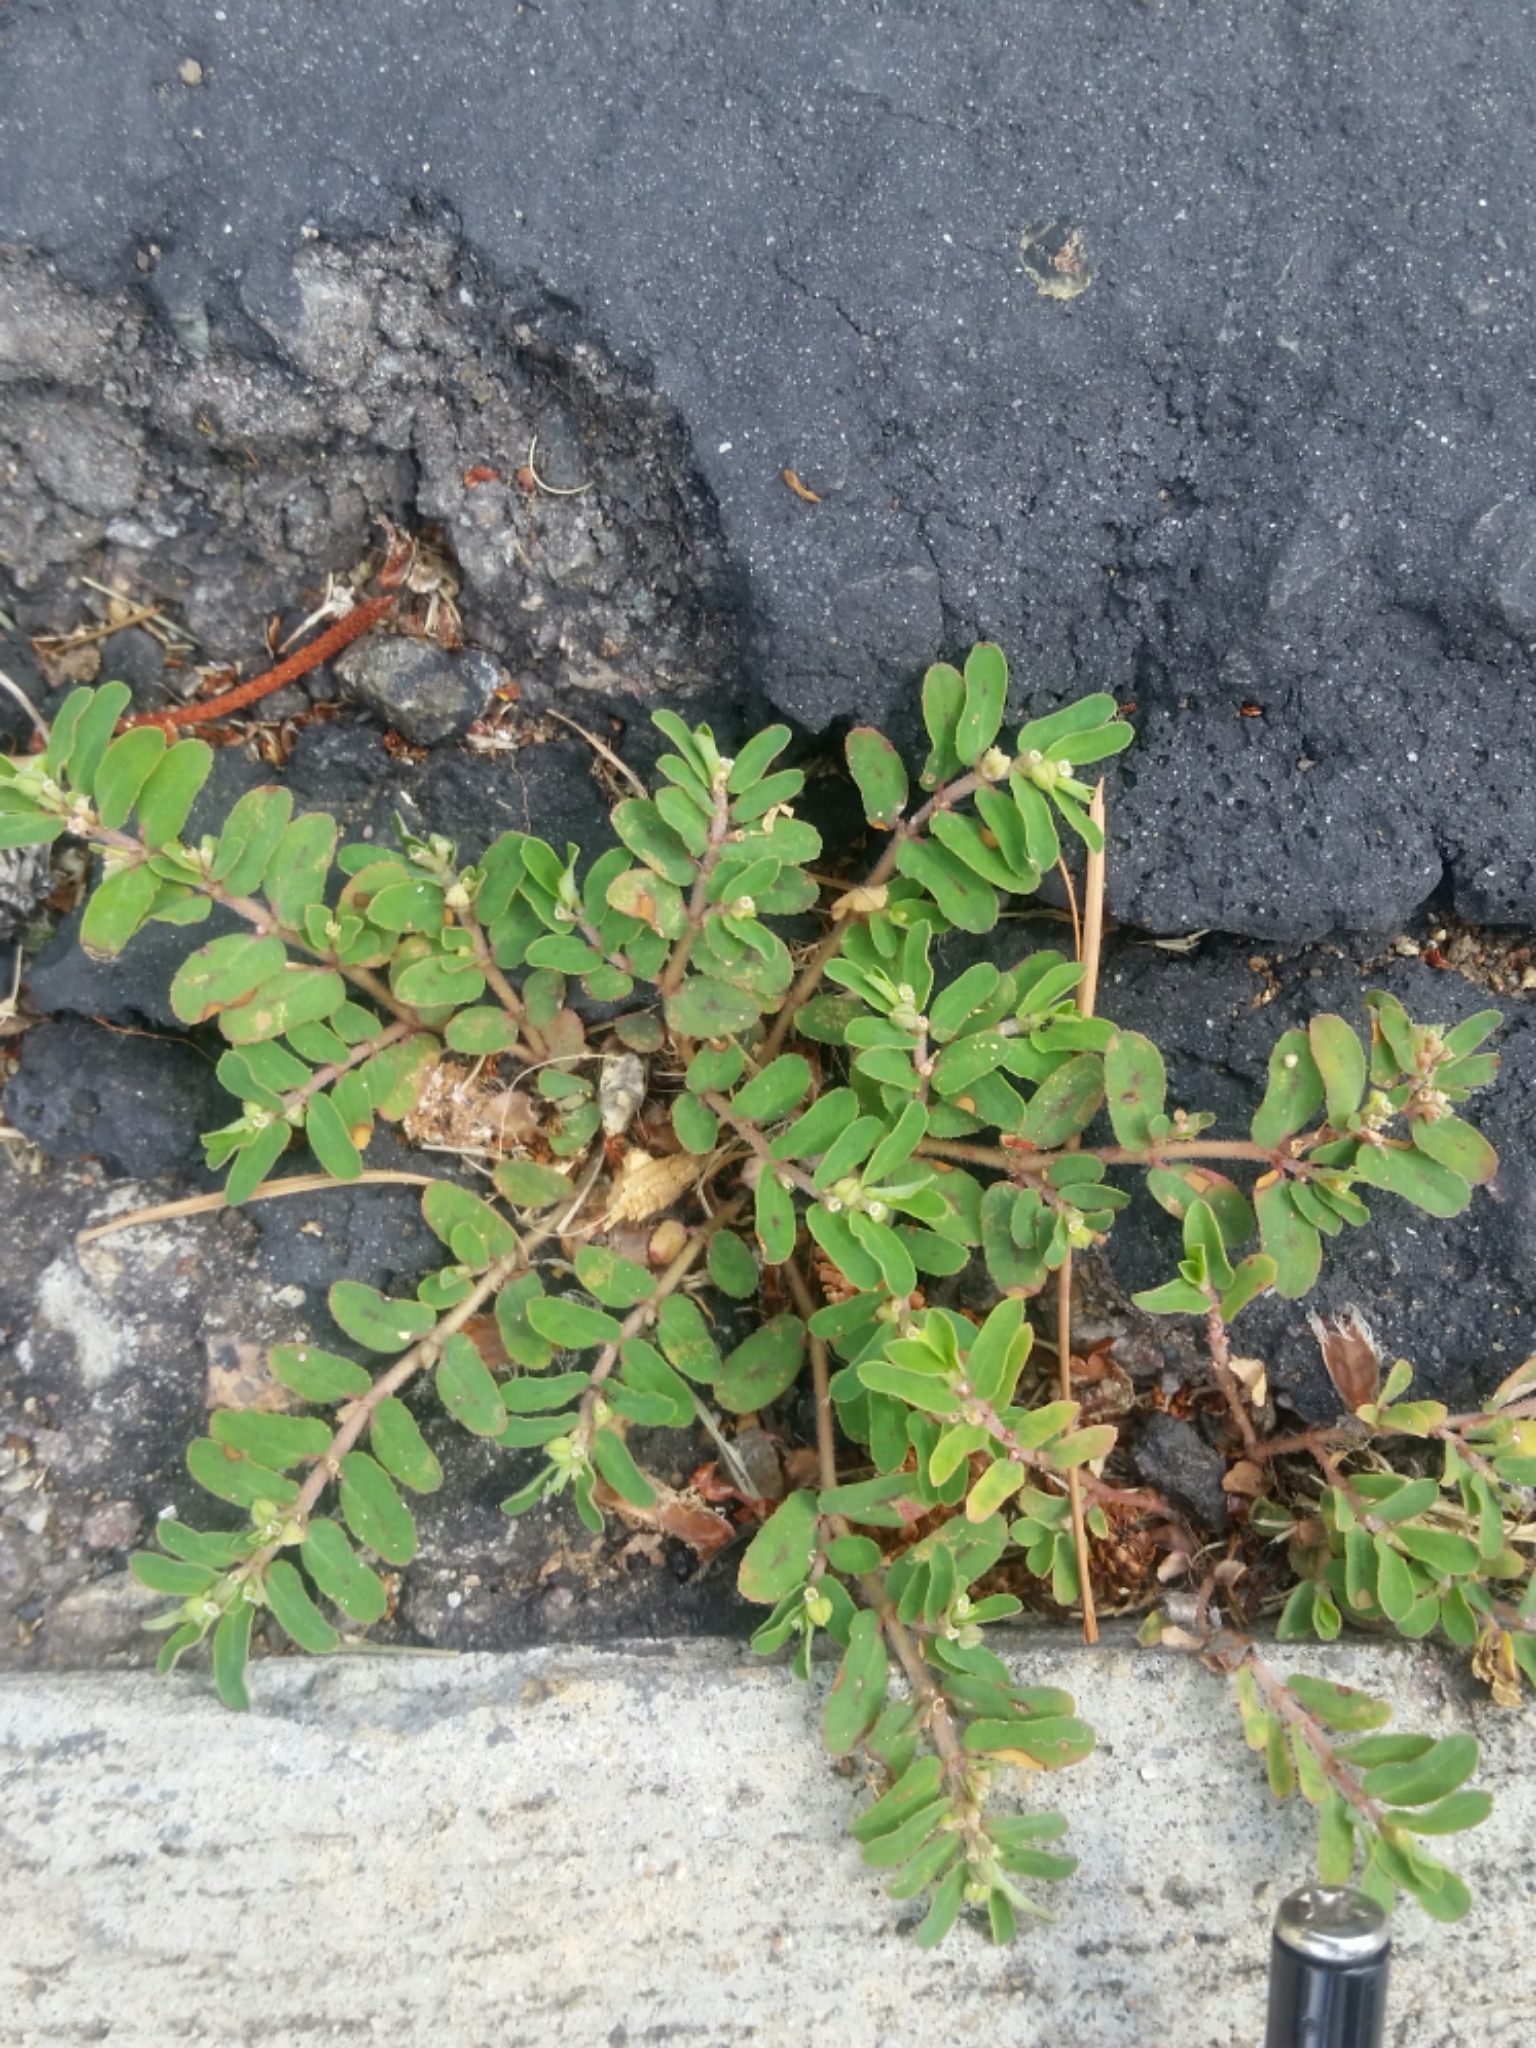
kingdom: Plantae
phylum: Tracheophyta
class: Magnoliopsida
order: Malpighiales
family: Euphorbiaceae
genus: Euphorbia
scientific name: Euphorbia maculata
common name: Spotted spurge
